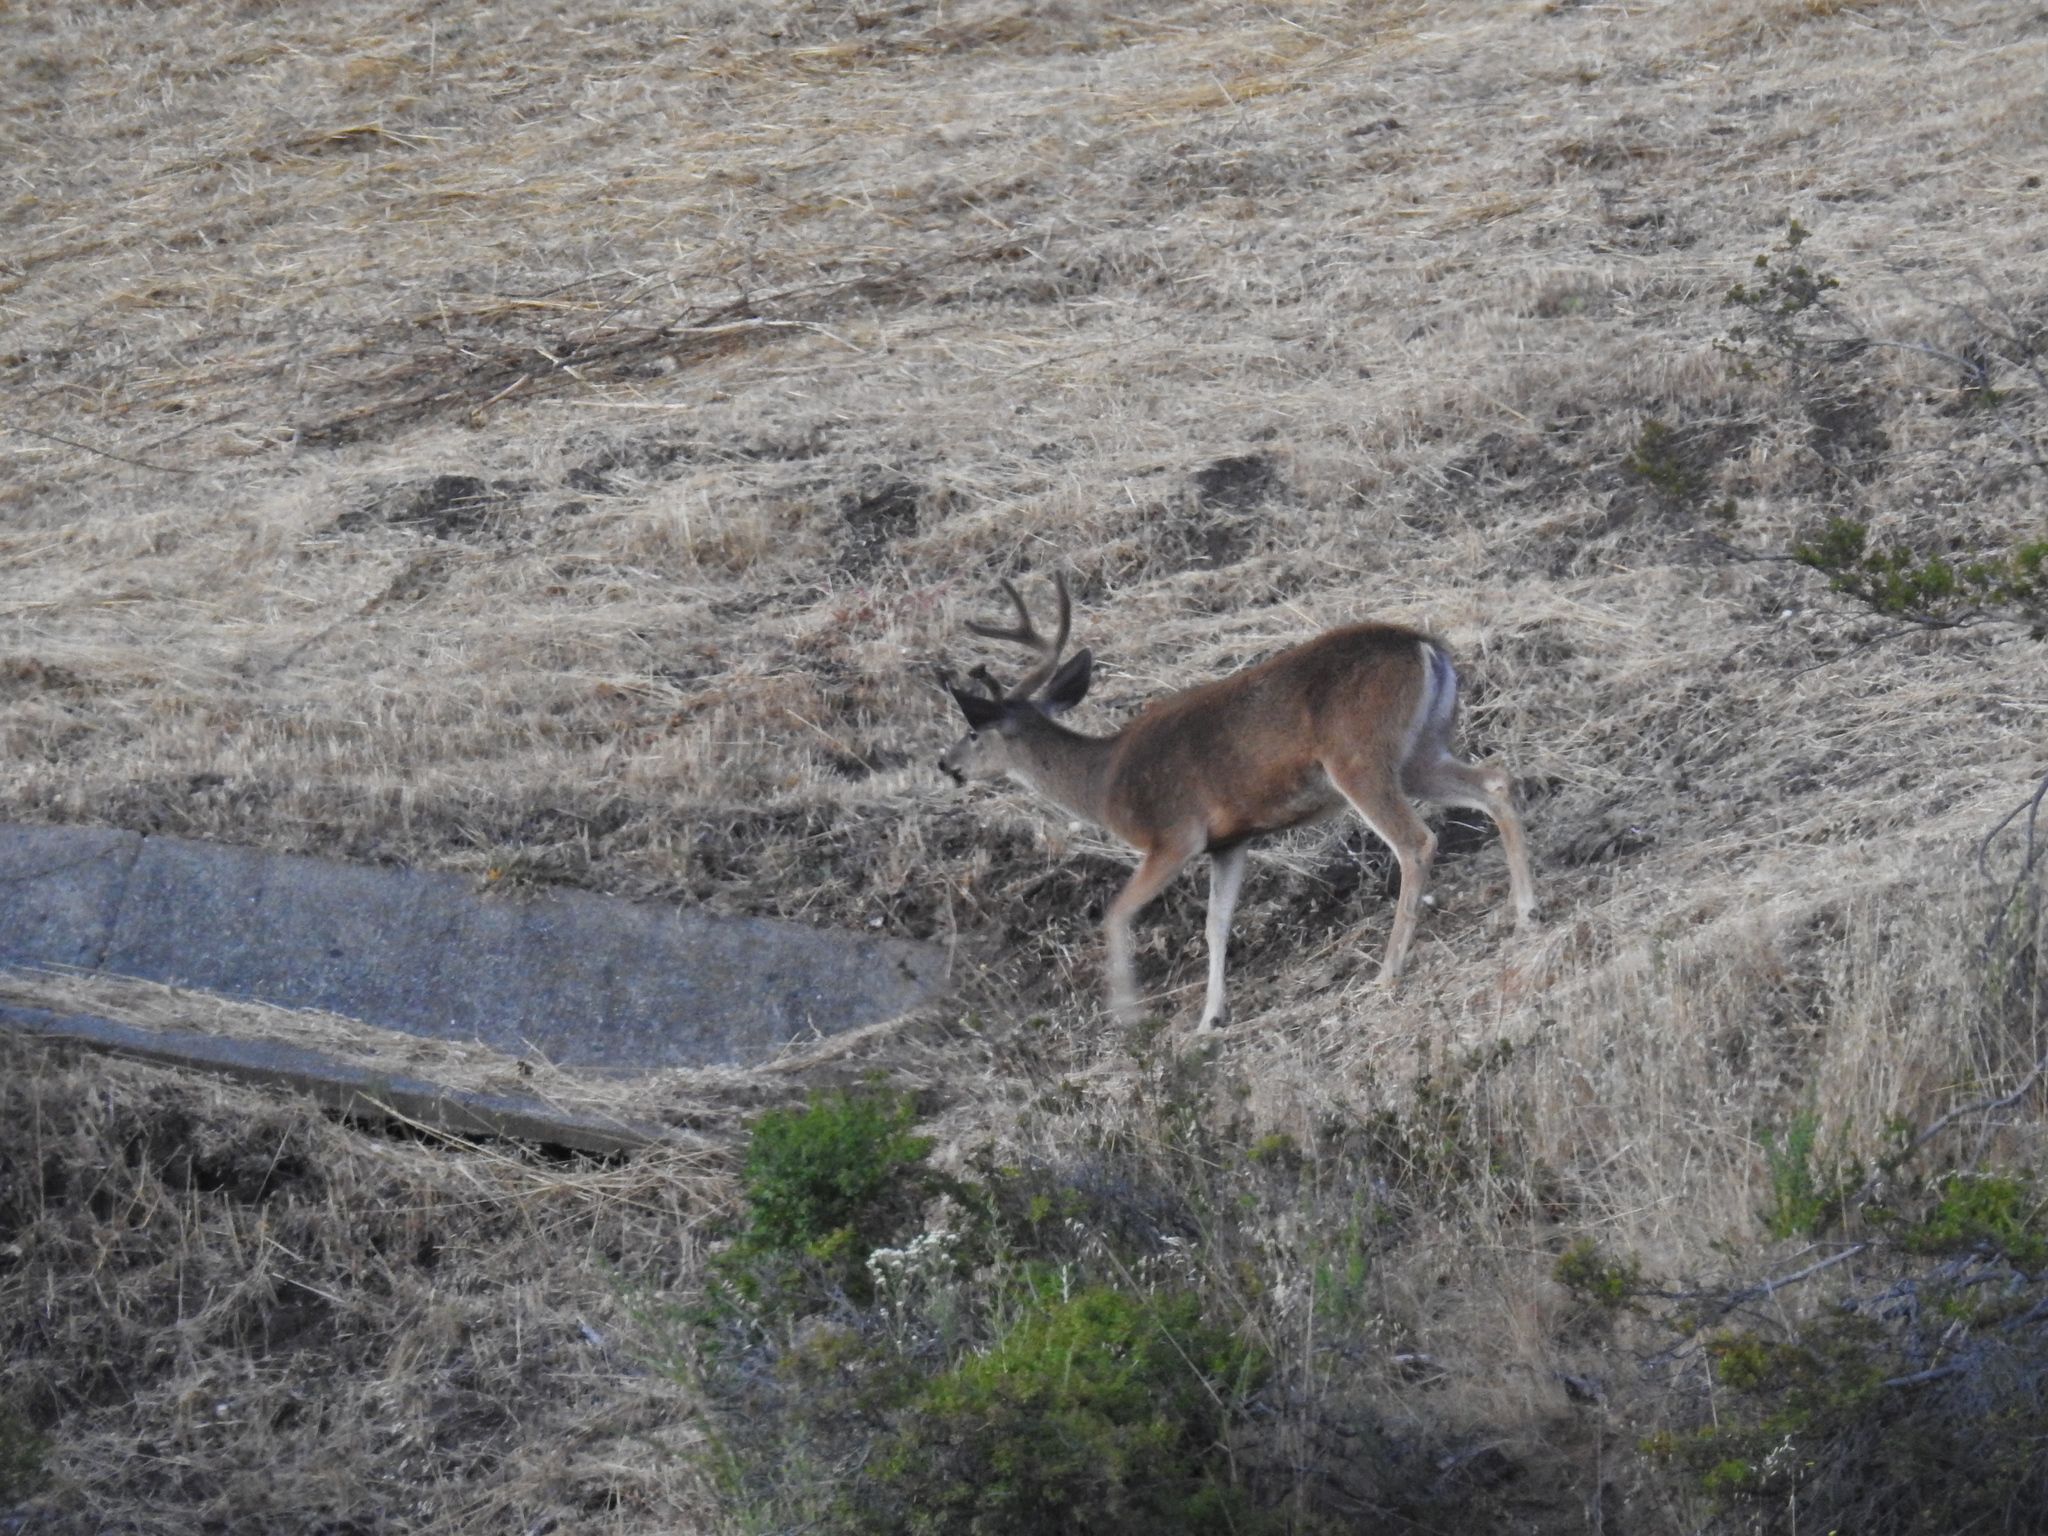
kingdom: Animalia
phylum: Chordata
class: Mammalia
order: Artiodactyla
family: Cervidae
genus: Odocoileus
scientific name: Odocoileus hemionus
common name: Mule deer
